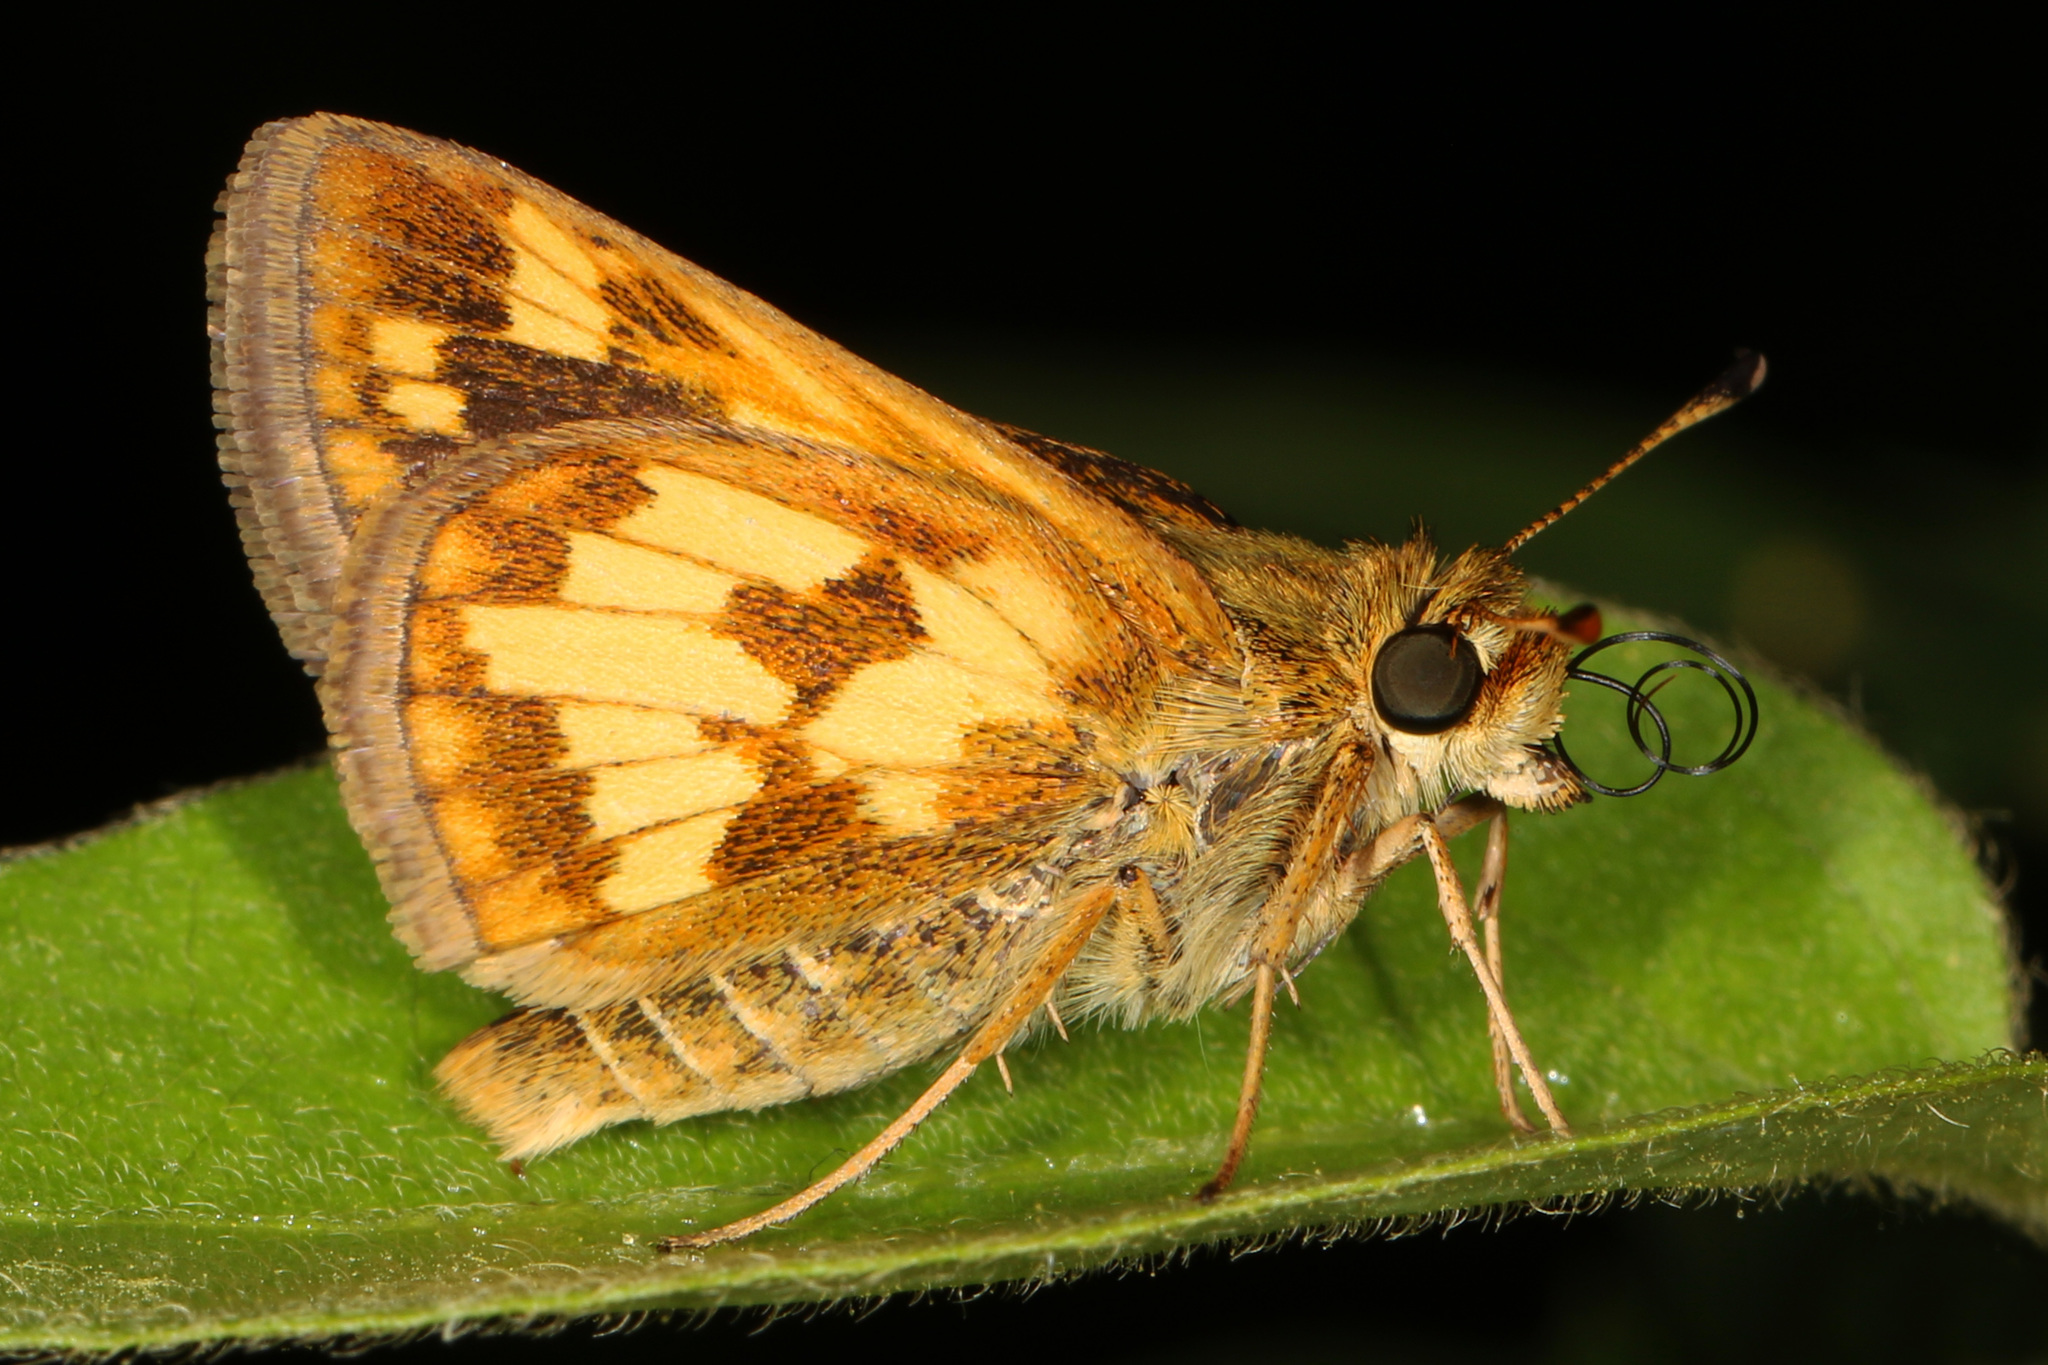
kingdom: Animalia
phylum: Arthropoda
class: Insecta
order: Lepidoptera
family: Hesperiidae
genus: Polites
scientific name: Polites coras
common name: Peck's skipper
